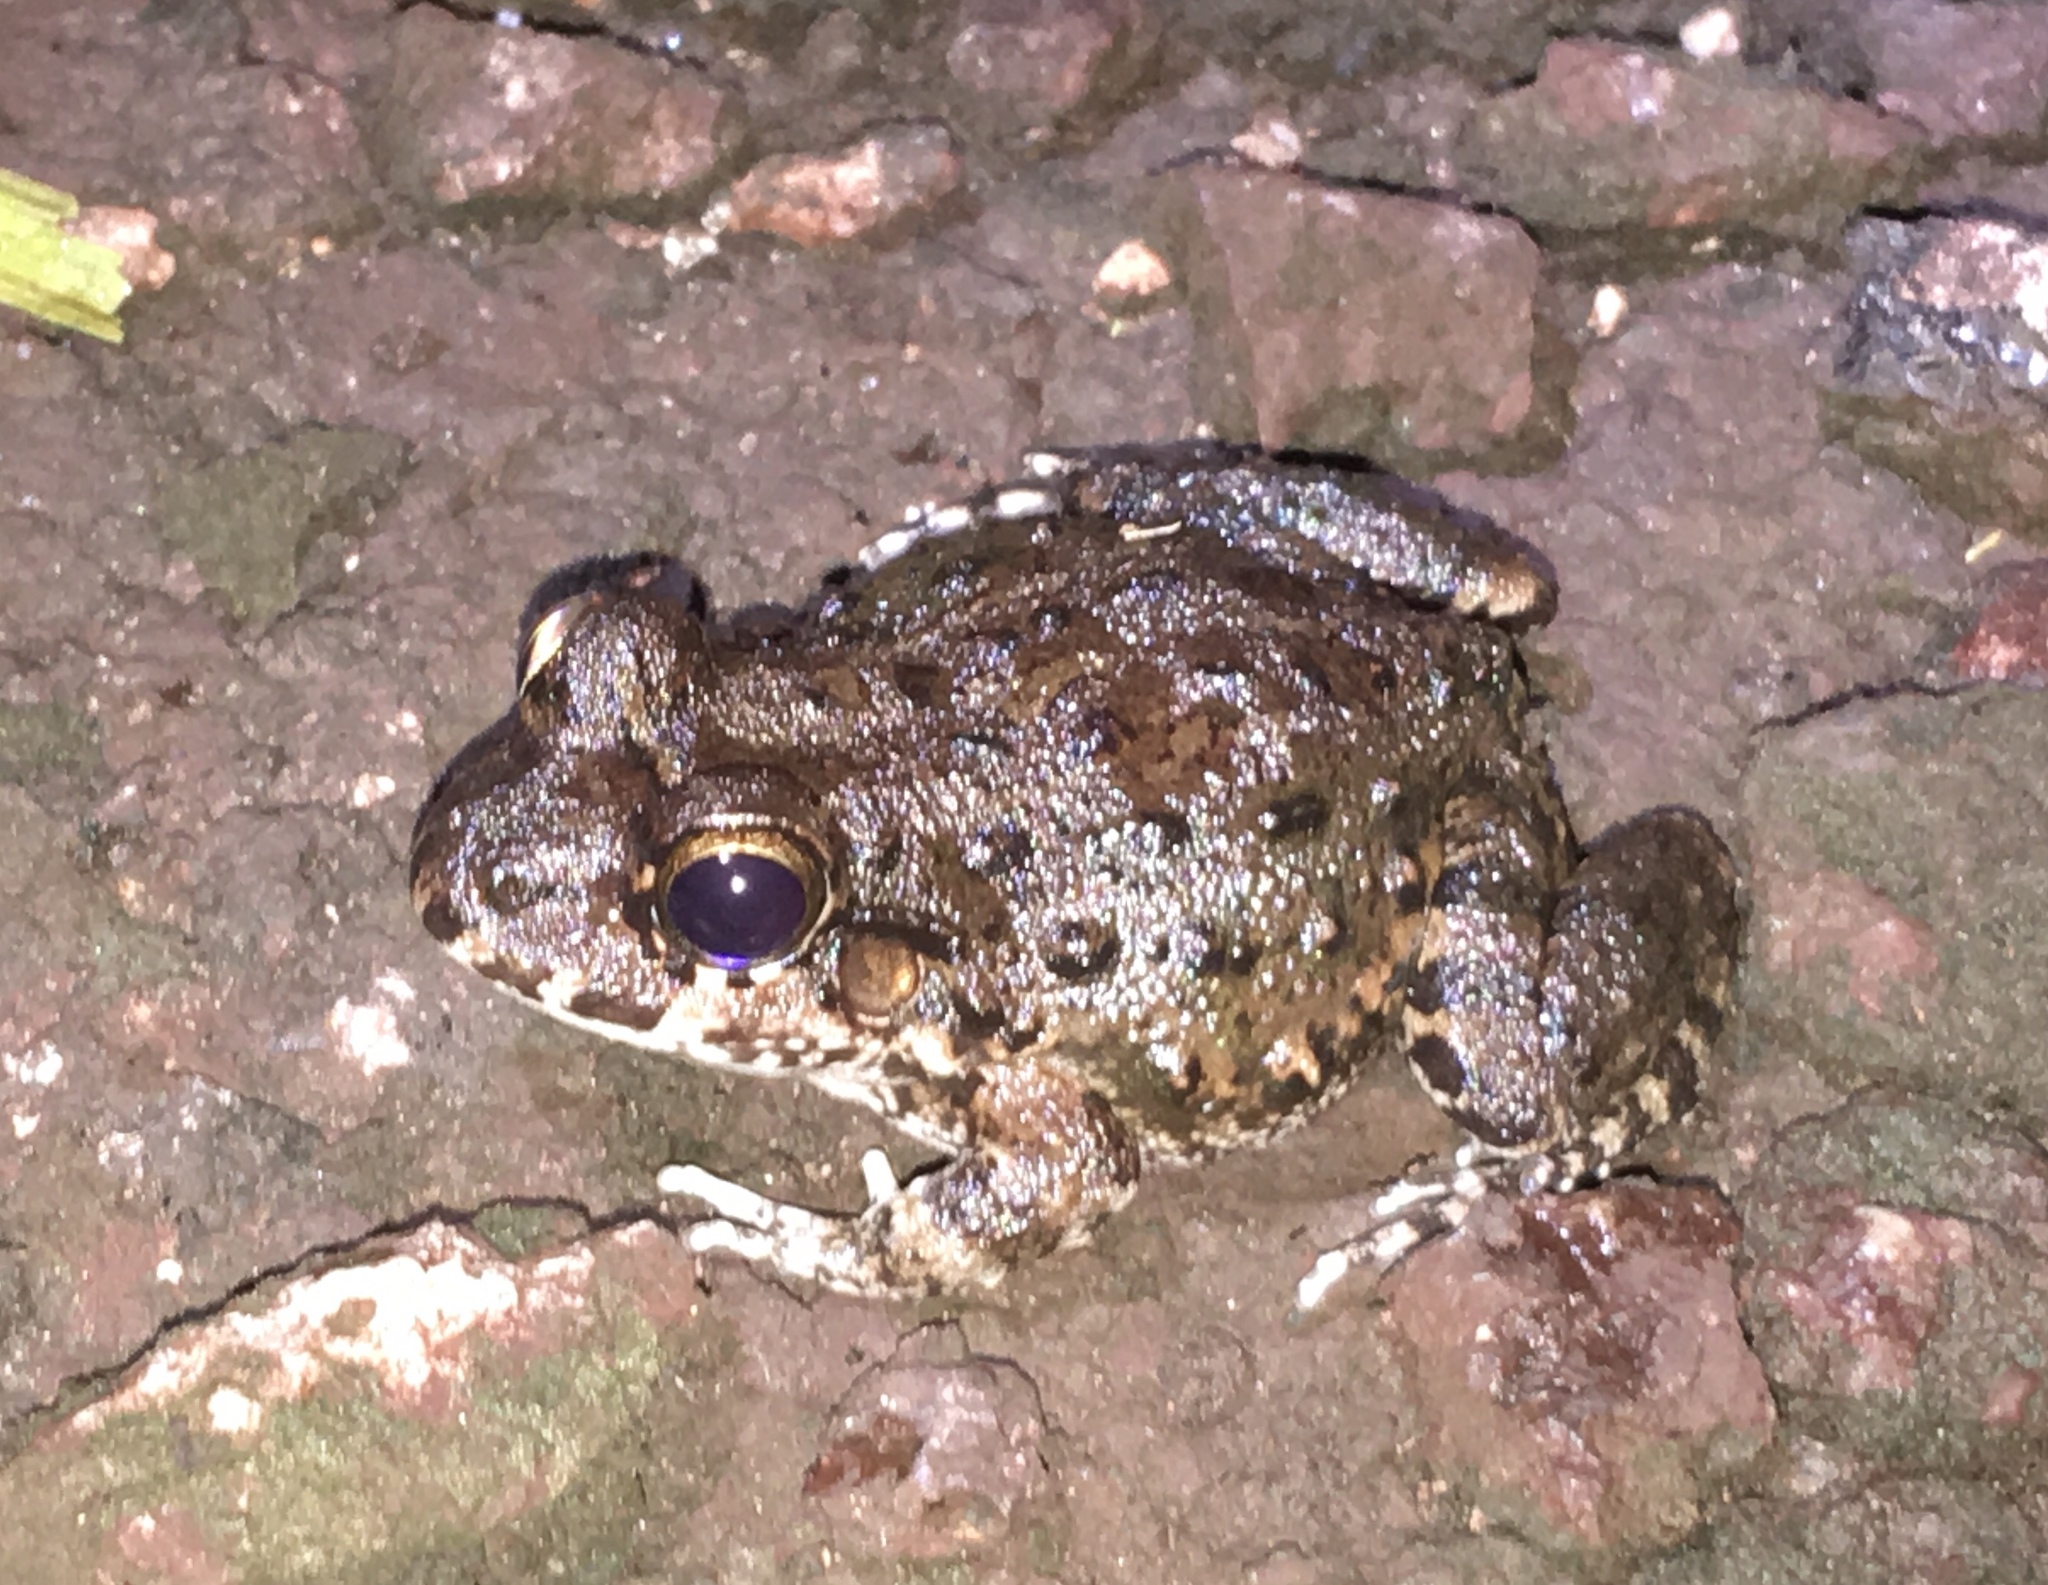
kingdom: Animalia
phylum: Chordata
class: Amphibia
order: Anura
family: Leptodactylidae
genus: Leptodactylus
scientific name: Leptodactylus lithonaetes
